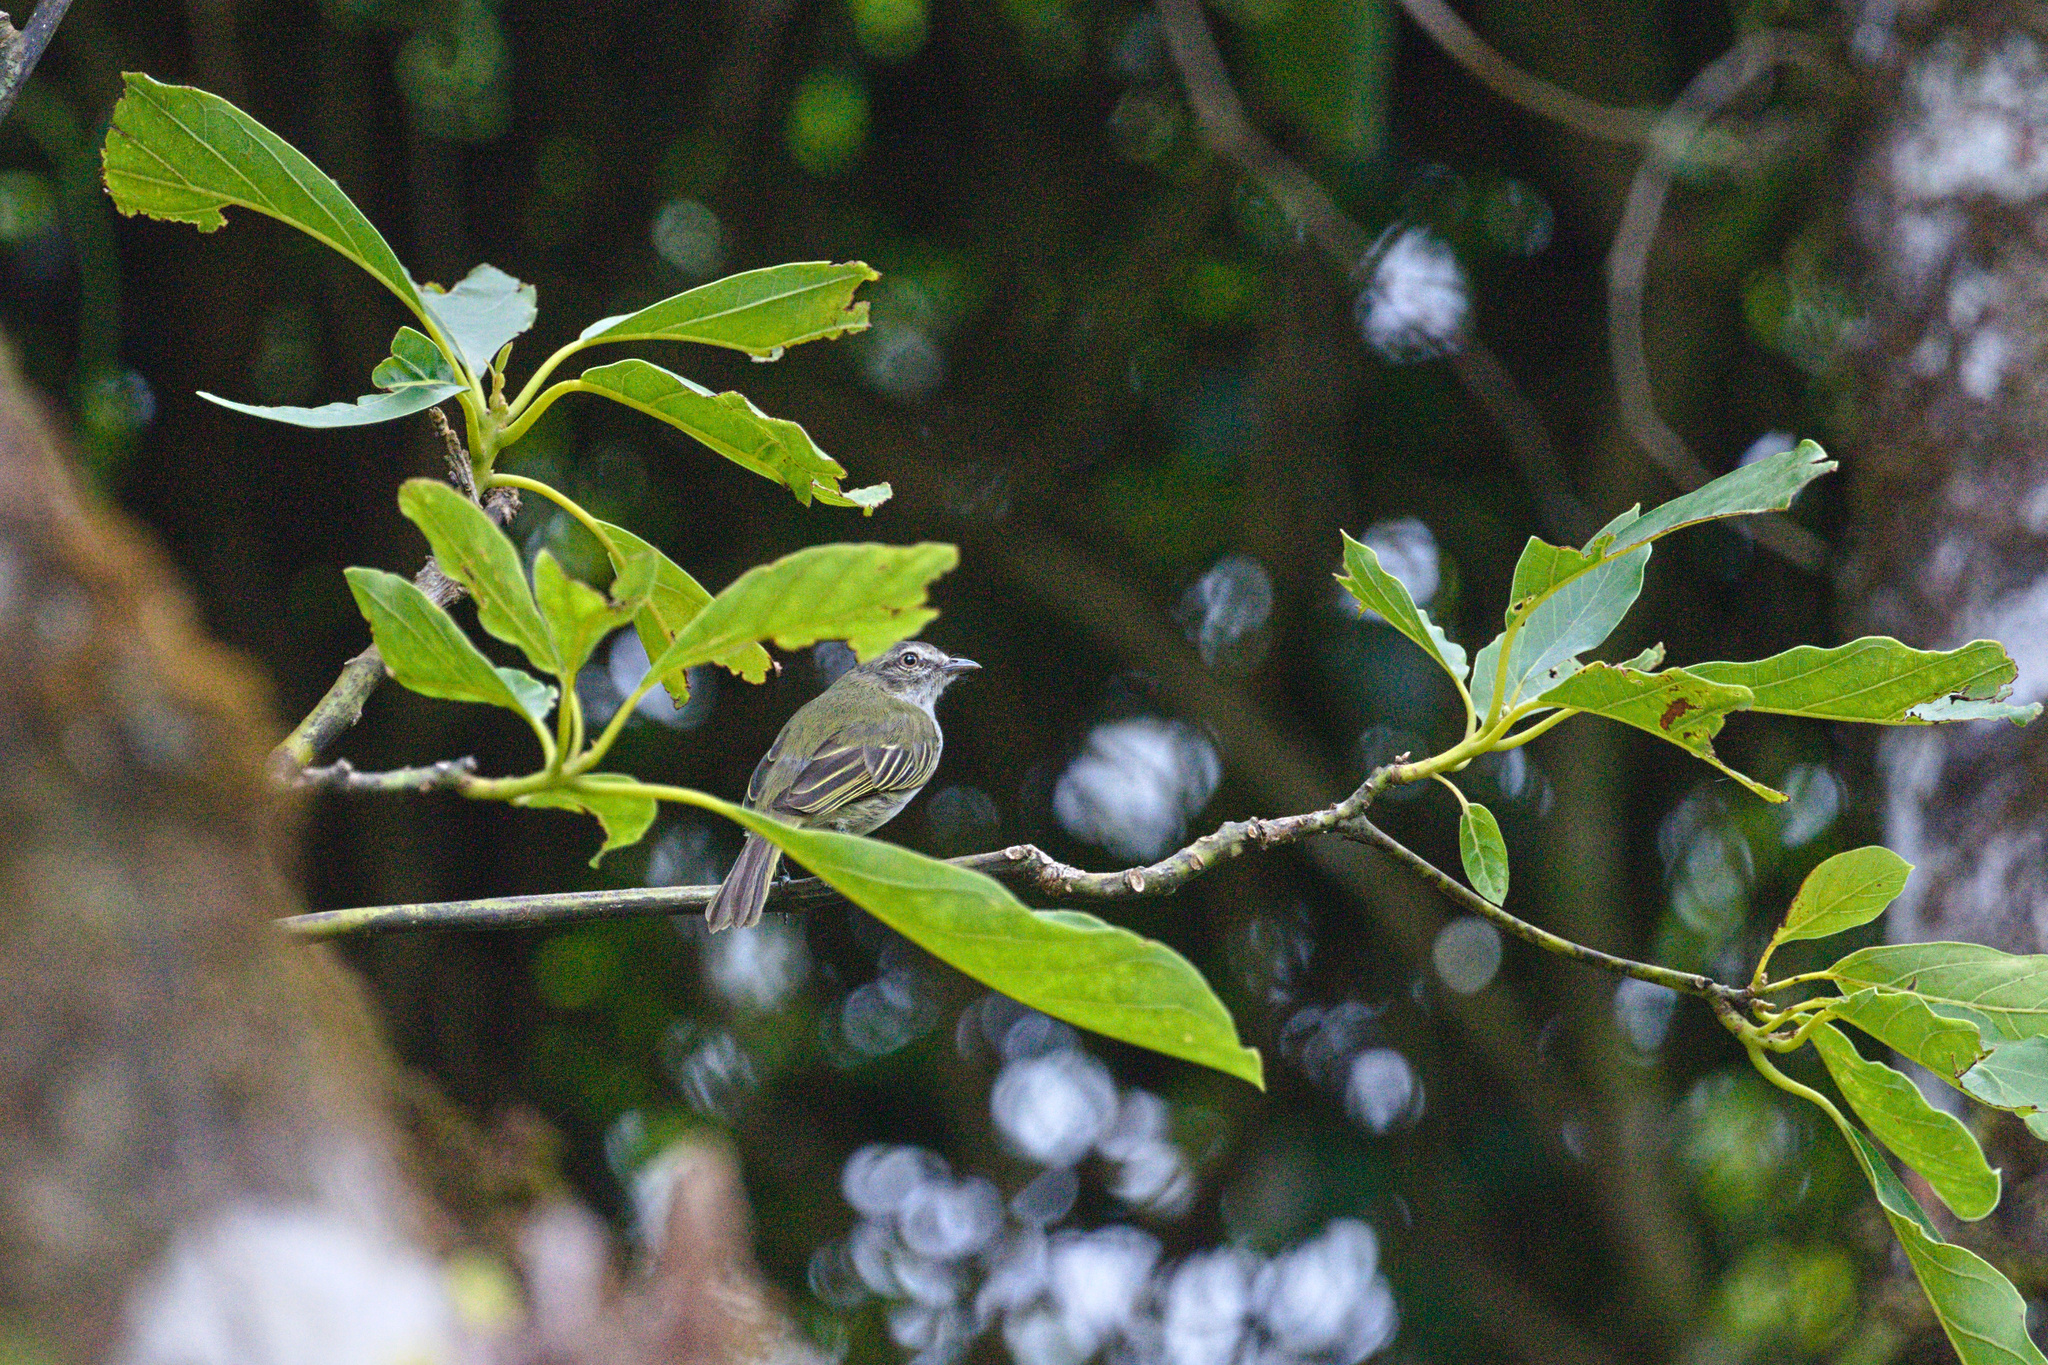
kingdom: Animalia
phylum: Chordata
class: Aves
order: Passeriformes
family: Tyrannidae
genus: Zimmerius
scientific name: Zimmerius vilissimus
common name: Paltry tyrannulet
